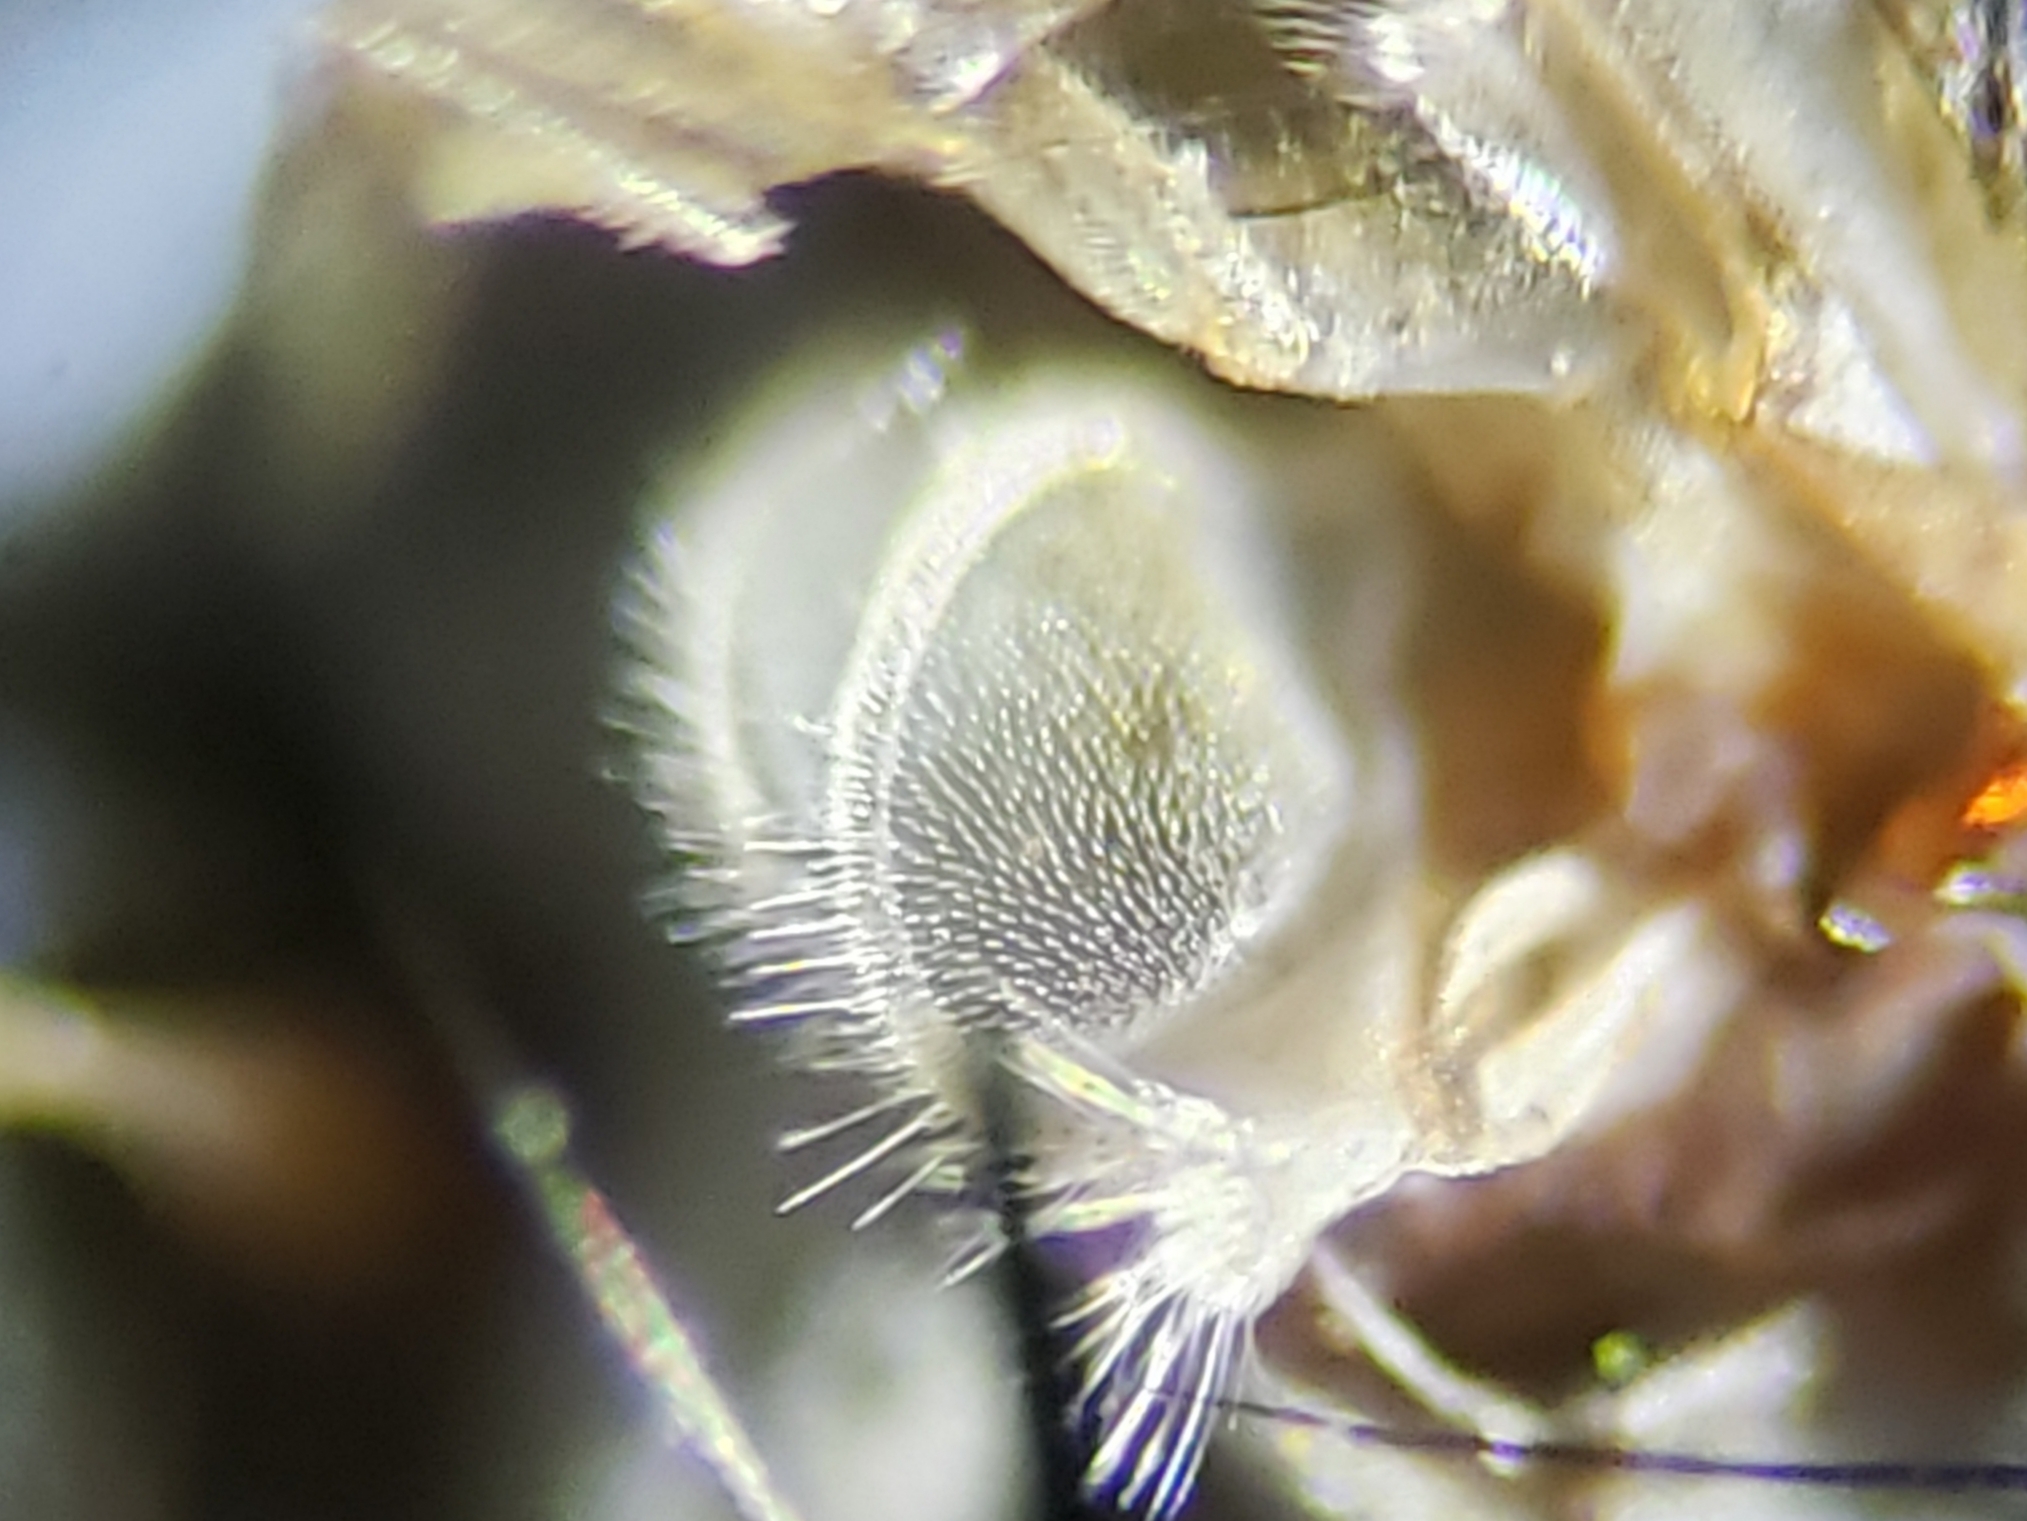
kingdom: Animalia
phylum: Arthropoda
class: Insecta
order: Diptera
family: Anthomyiidae
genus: Eustalomyia
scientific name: Eustalomyia vittipes
